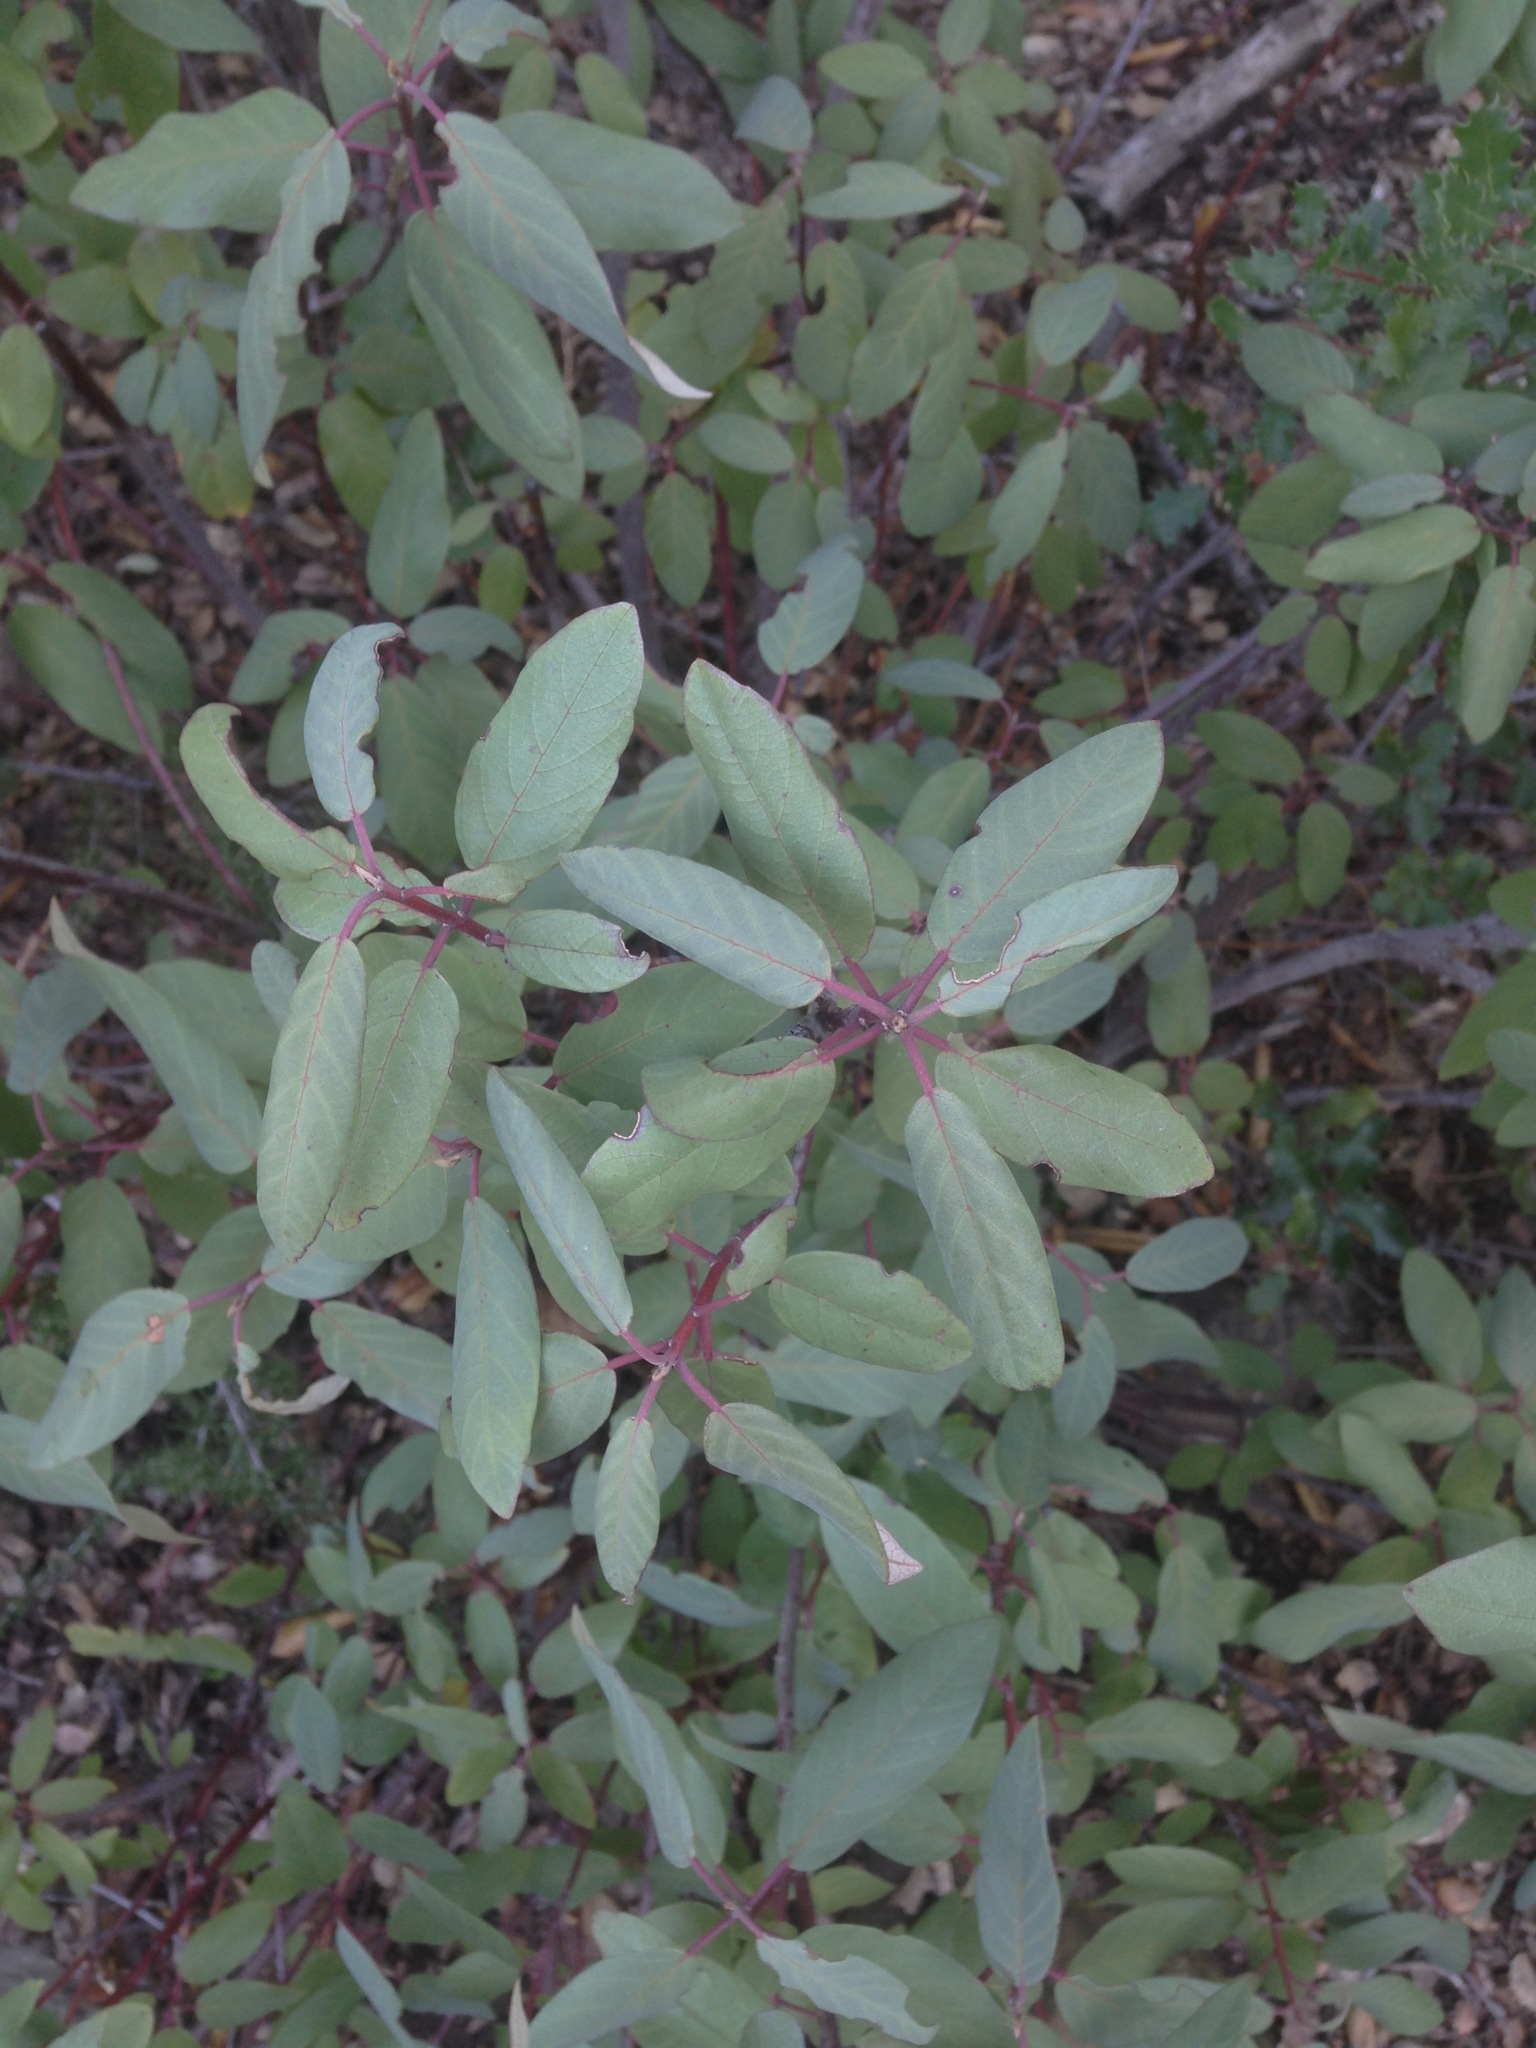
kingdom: Plantae
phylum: Tracheophyta
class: Magnoliopsida
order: Rosales
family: Rhamnaceae
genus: Frangula
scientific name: Frangula californica
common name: California buckthorn
